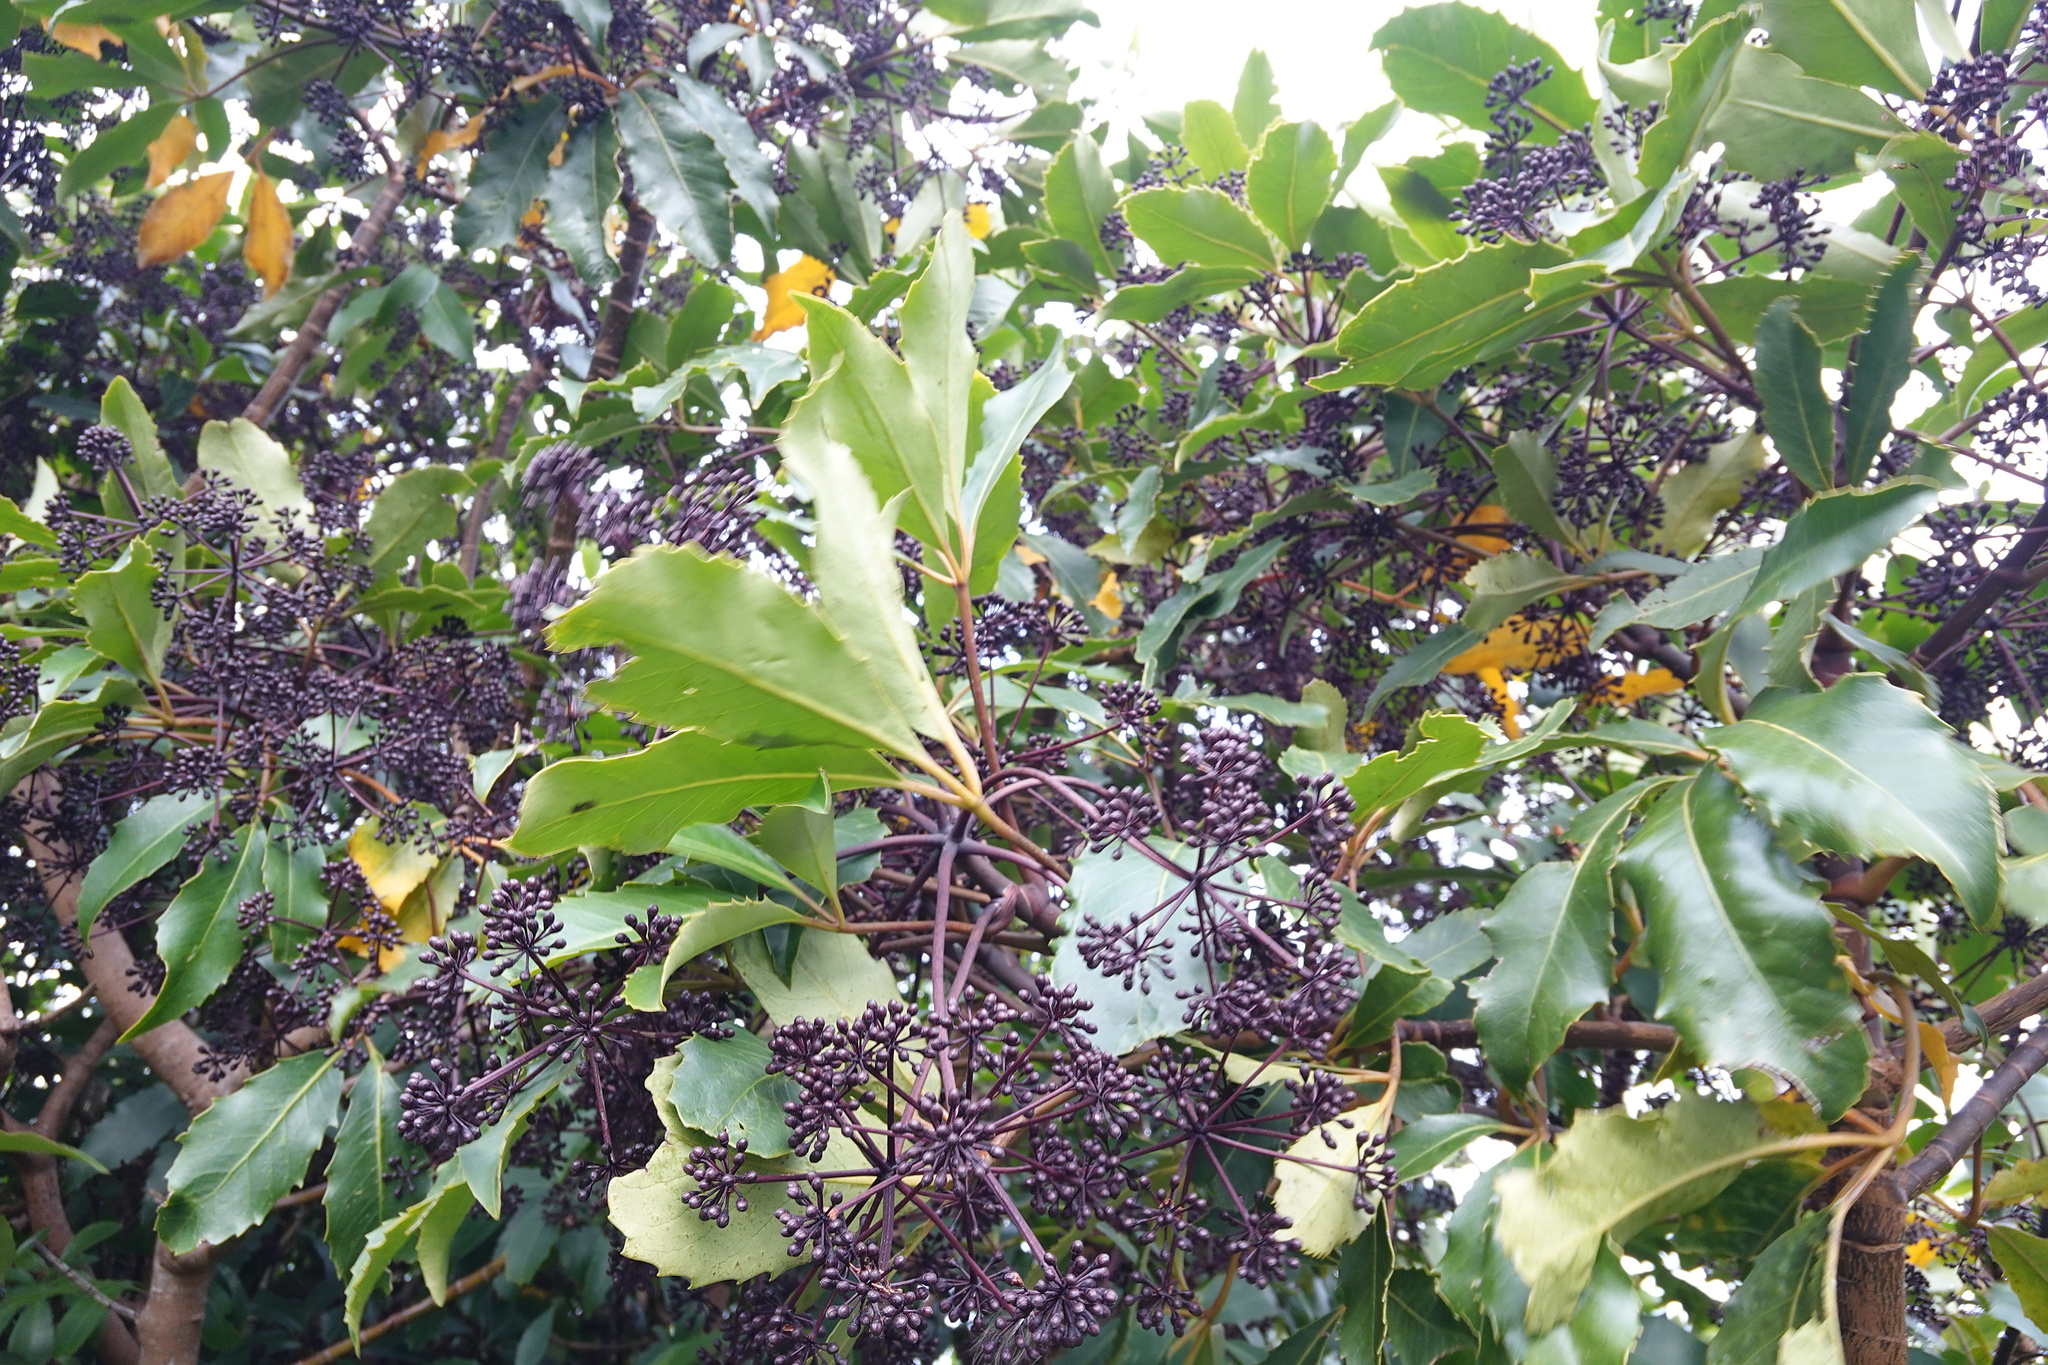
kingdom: Plantae
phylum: Tracheophyta
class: Magnoliopsida
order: Apiales
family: Araliaceae
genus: Neopanax
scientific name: Neopanax arboreus
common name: Five-fingers
